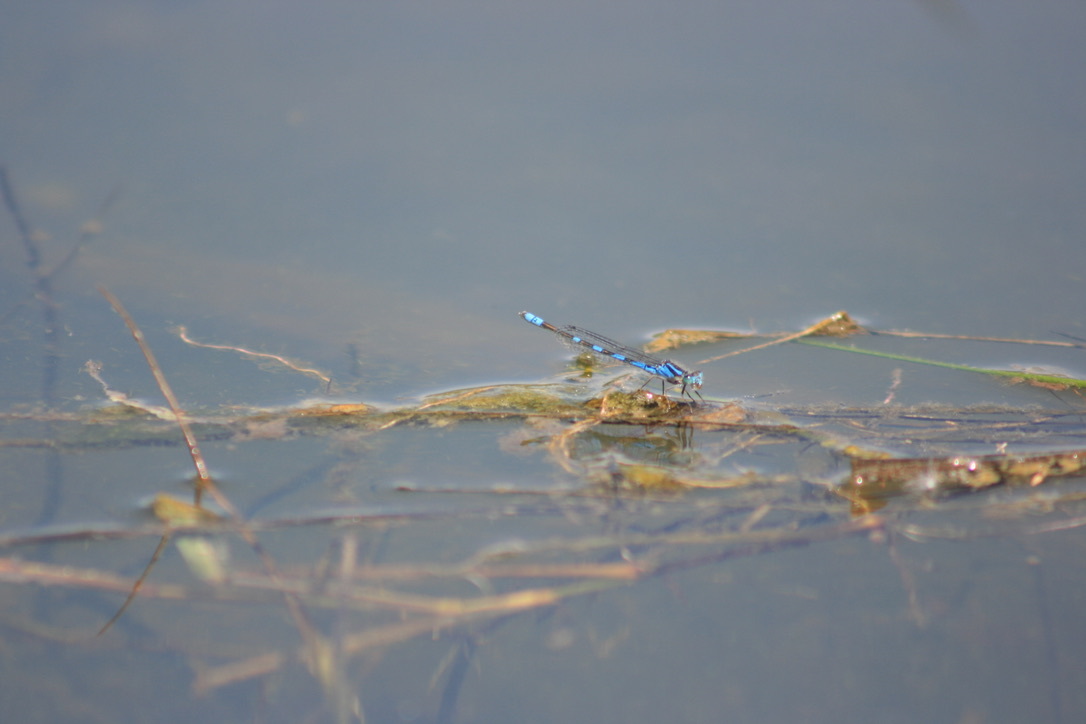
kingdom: Animalia
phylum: Arthropoda
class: Insecta
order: Odonata
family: Libellulidae
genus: Sympetrum
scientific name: Sympetrum illotum
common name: Cardinal meadowhawk
